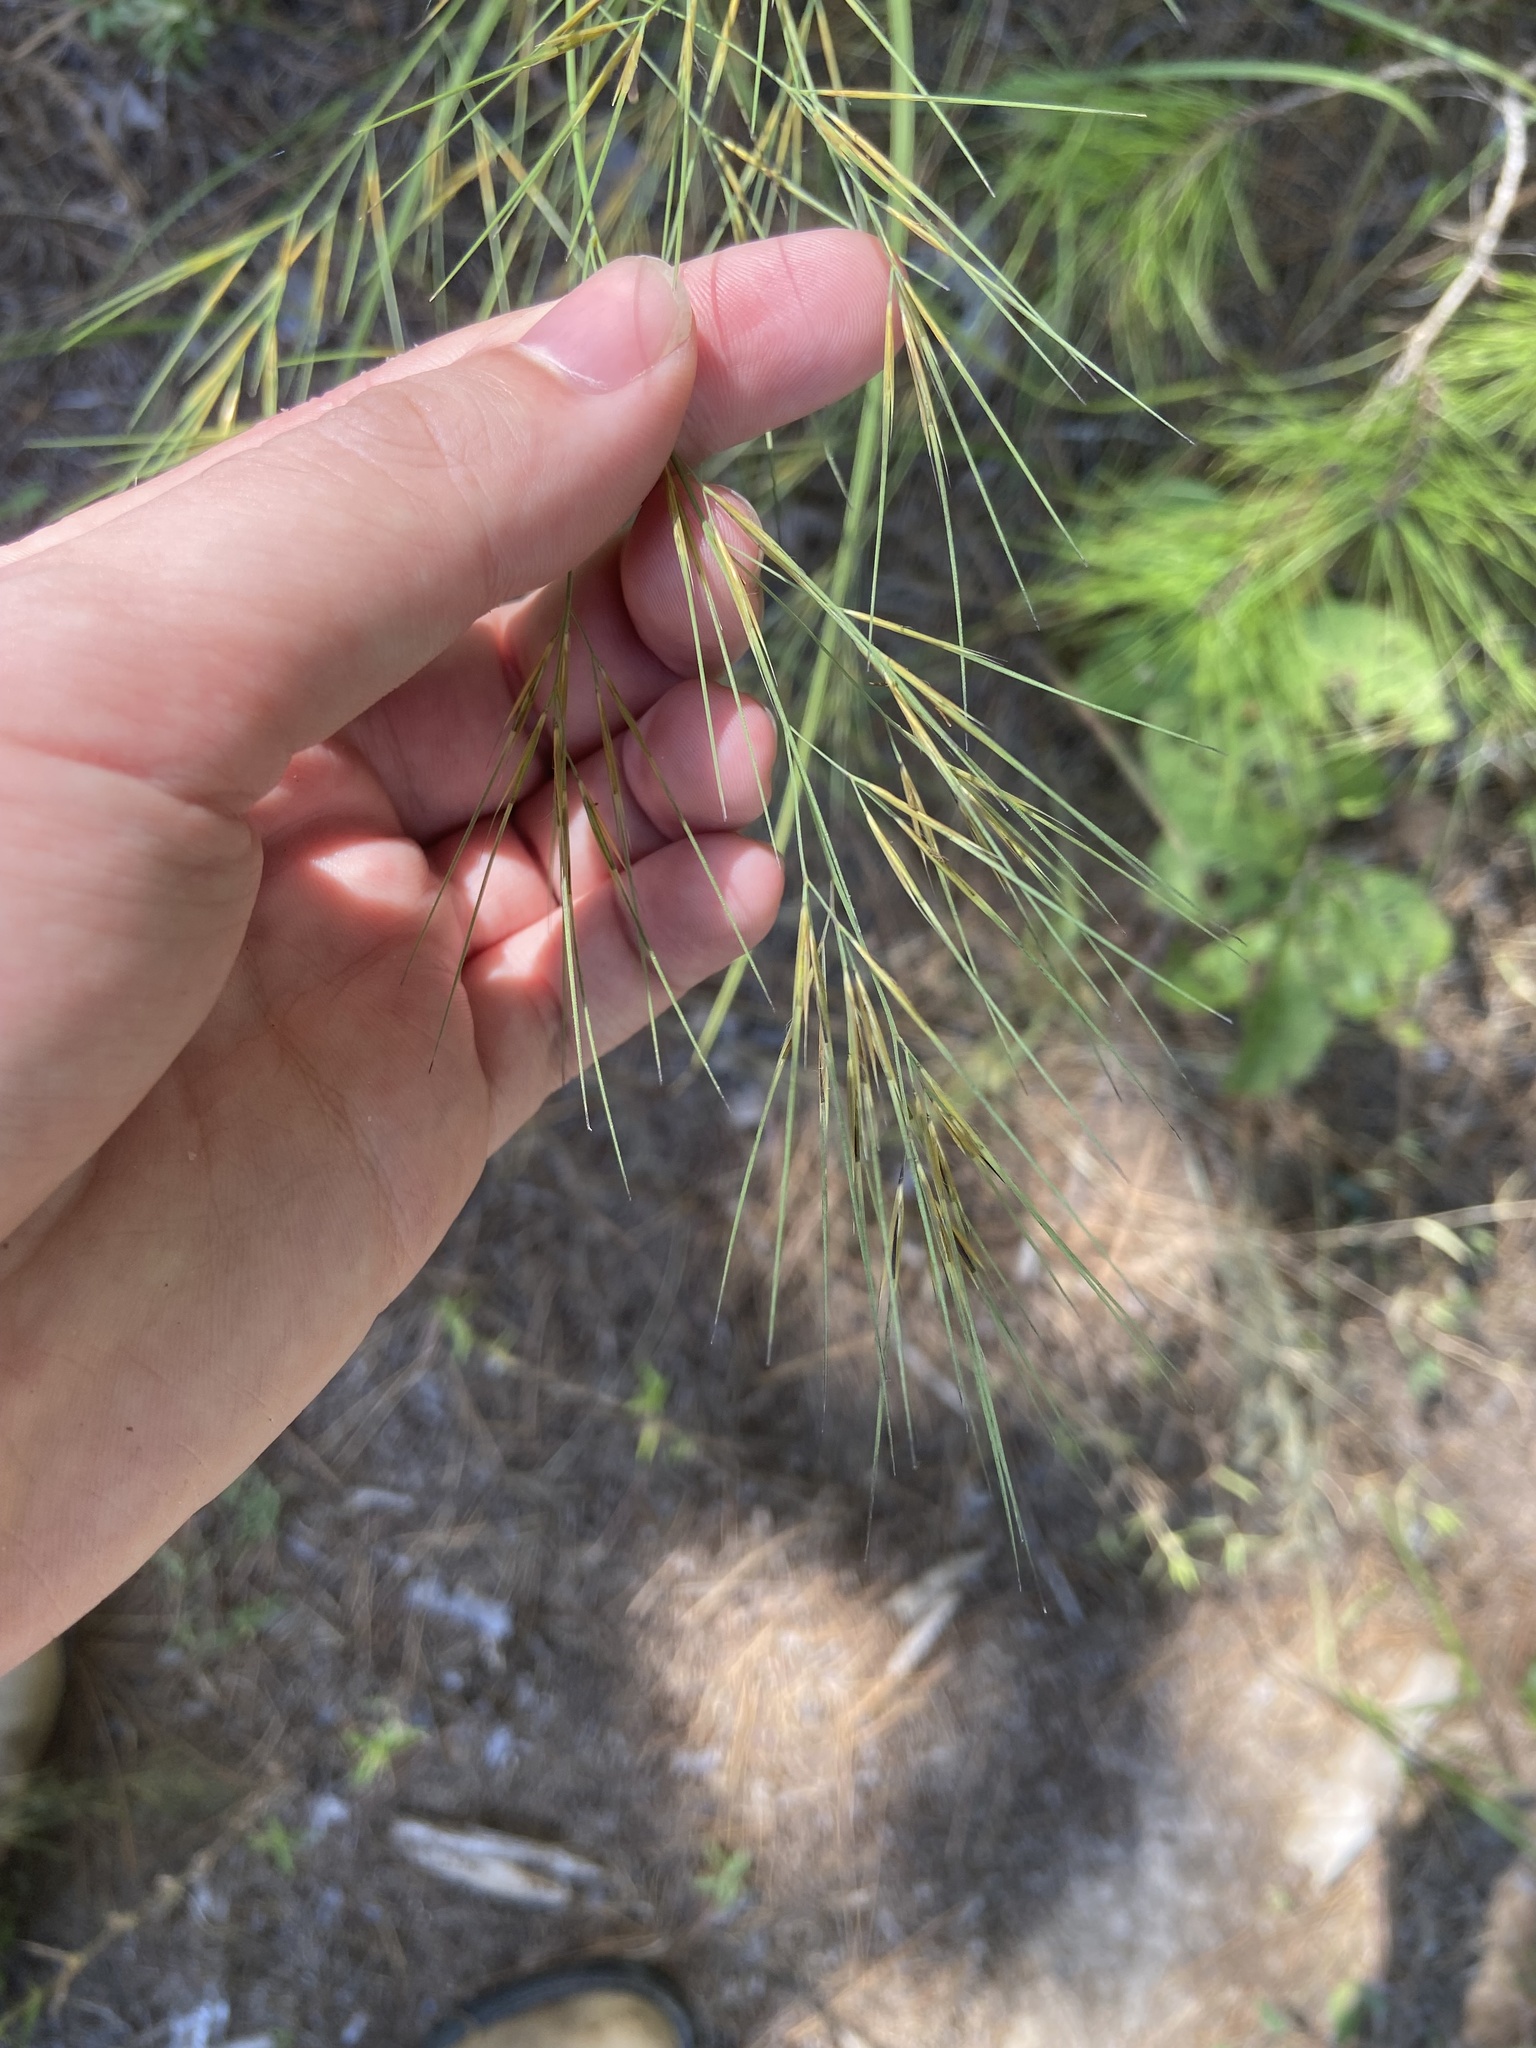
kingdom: Plantae
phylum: Tracheophyta
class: Liliopsida
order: Poales
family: Poaceae
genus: Aristida
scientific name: Aristida desmantha
